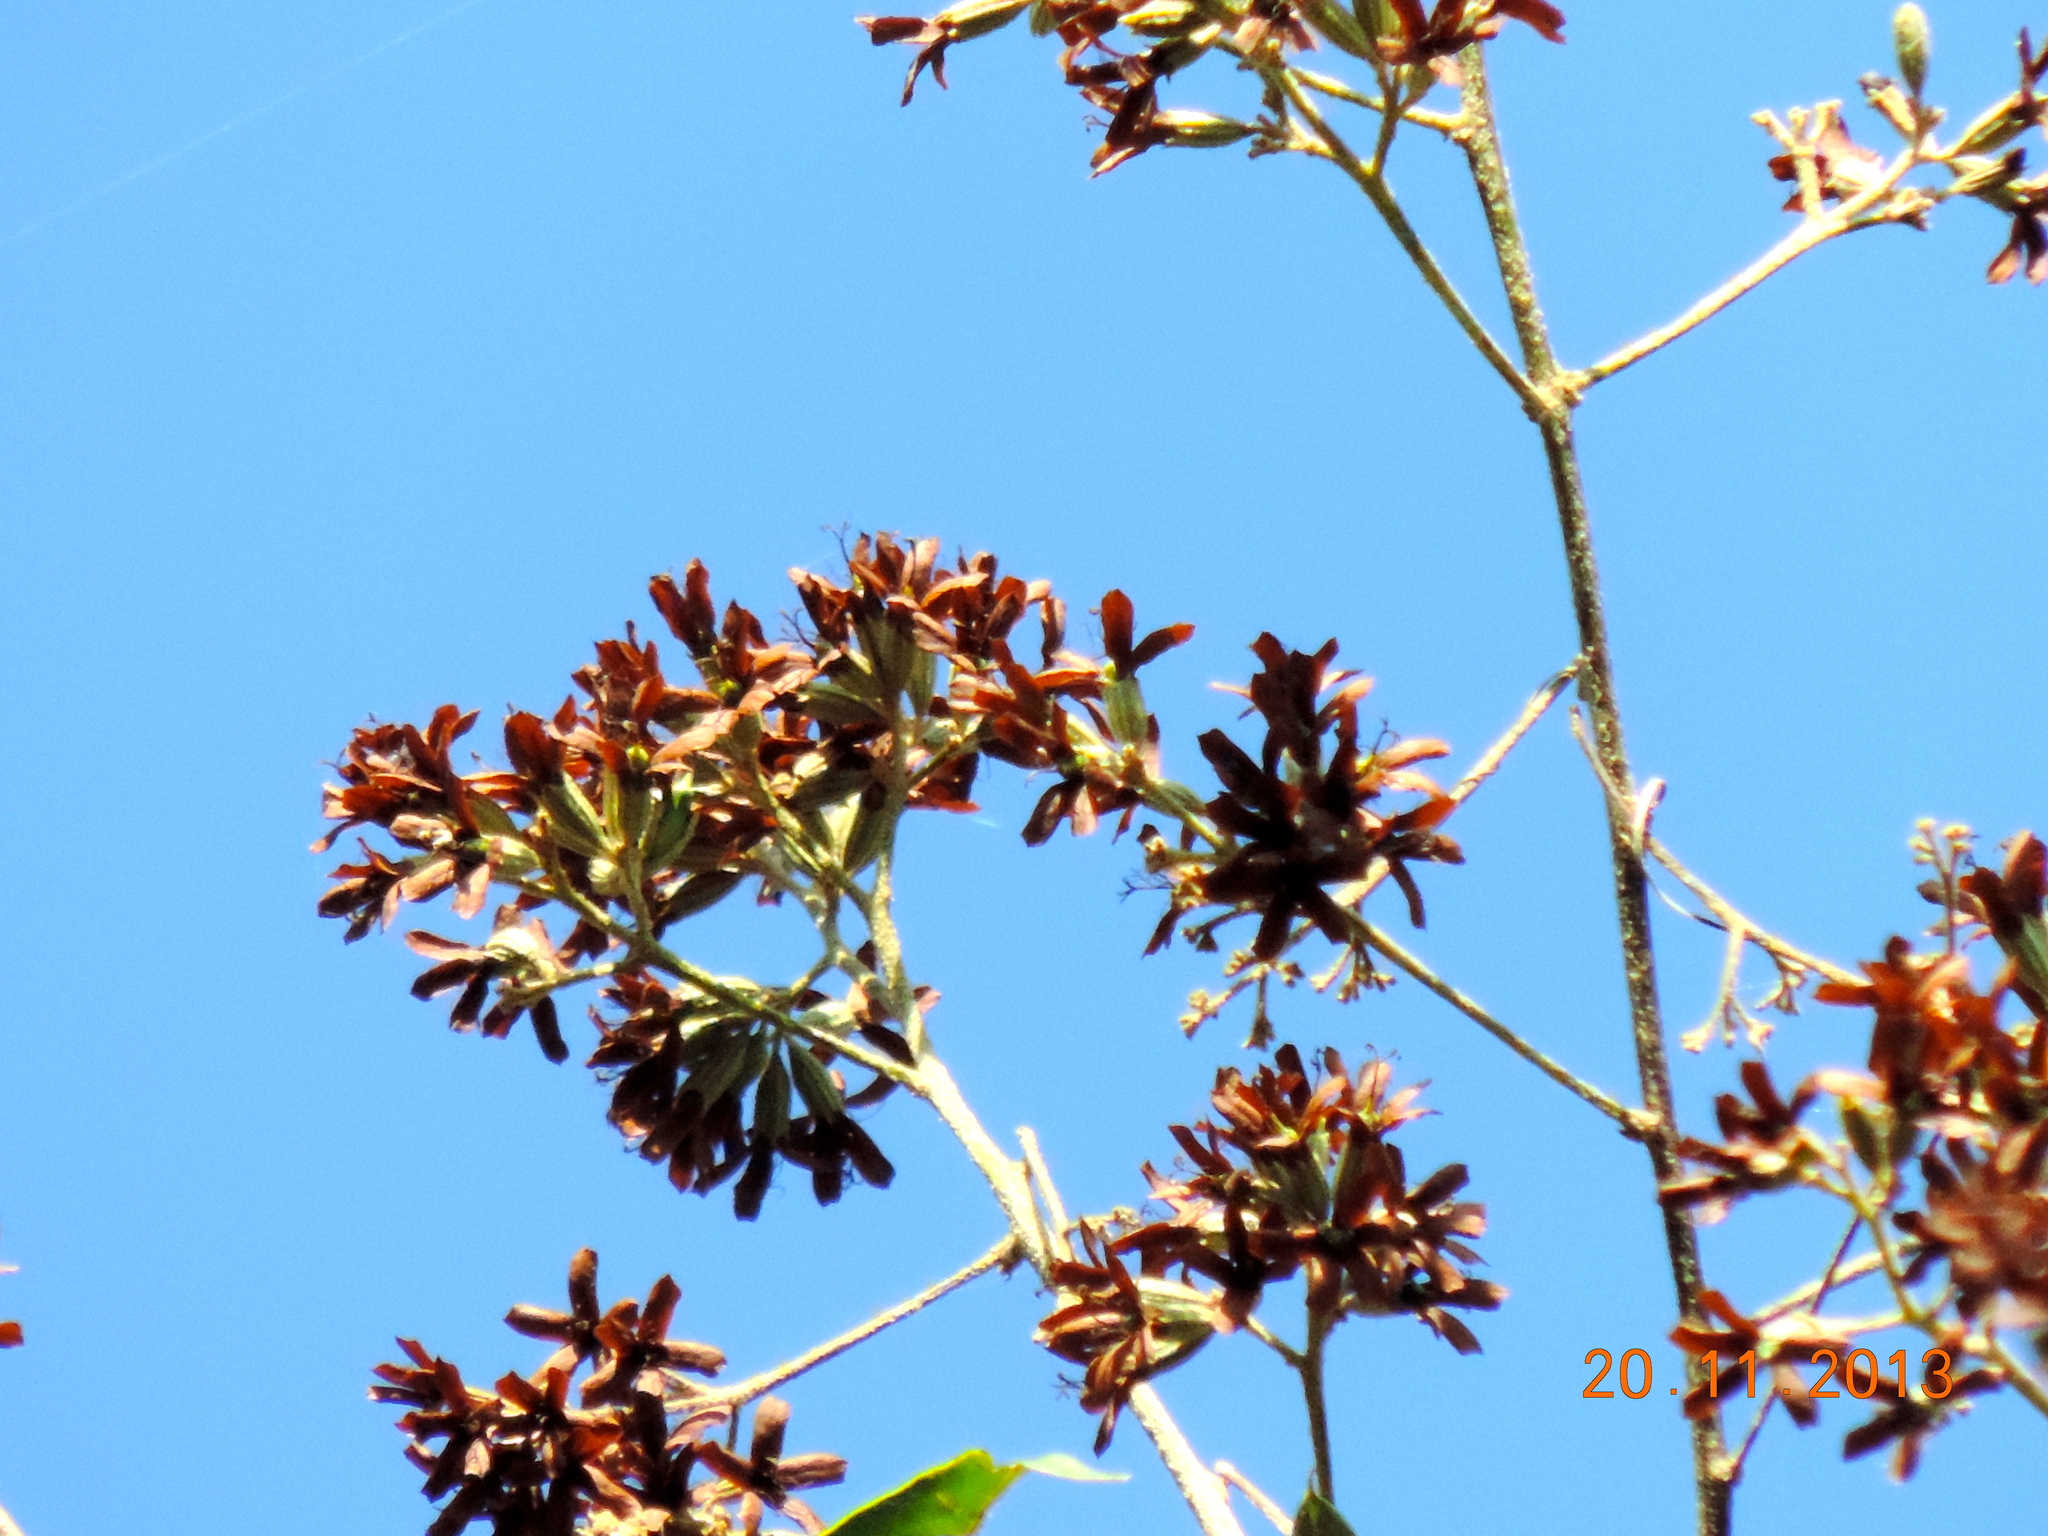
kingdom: Plantae
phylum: Tracheophyta
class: Magnoliopsida
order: Boraginales
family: Cordiaceae
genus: Cordia
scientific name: Cordia alliodora
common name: Spanish elm
